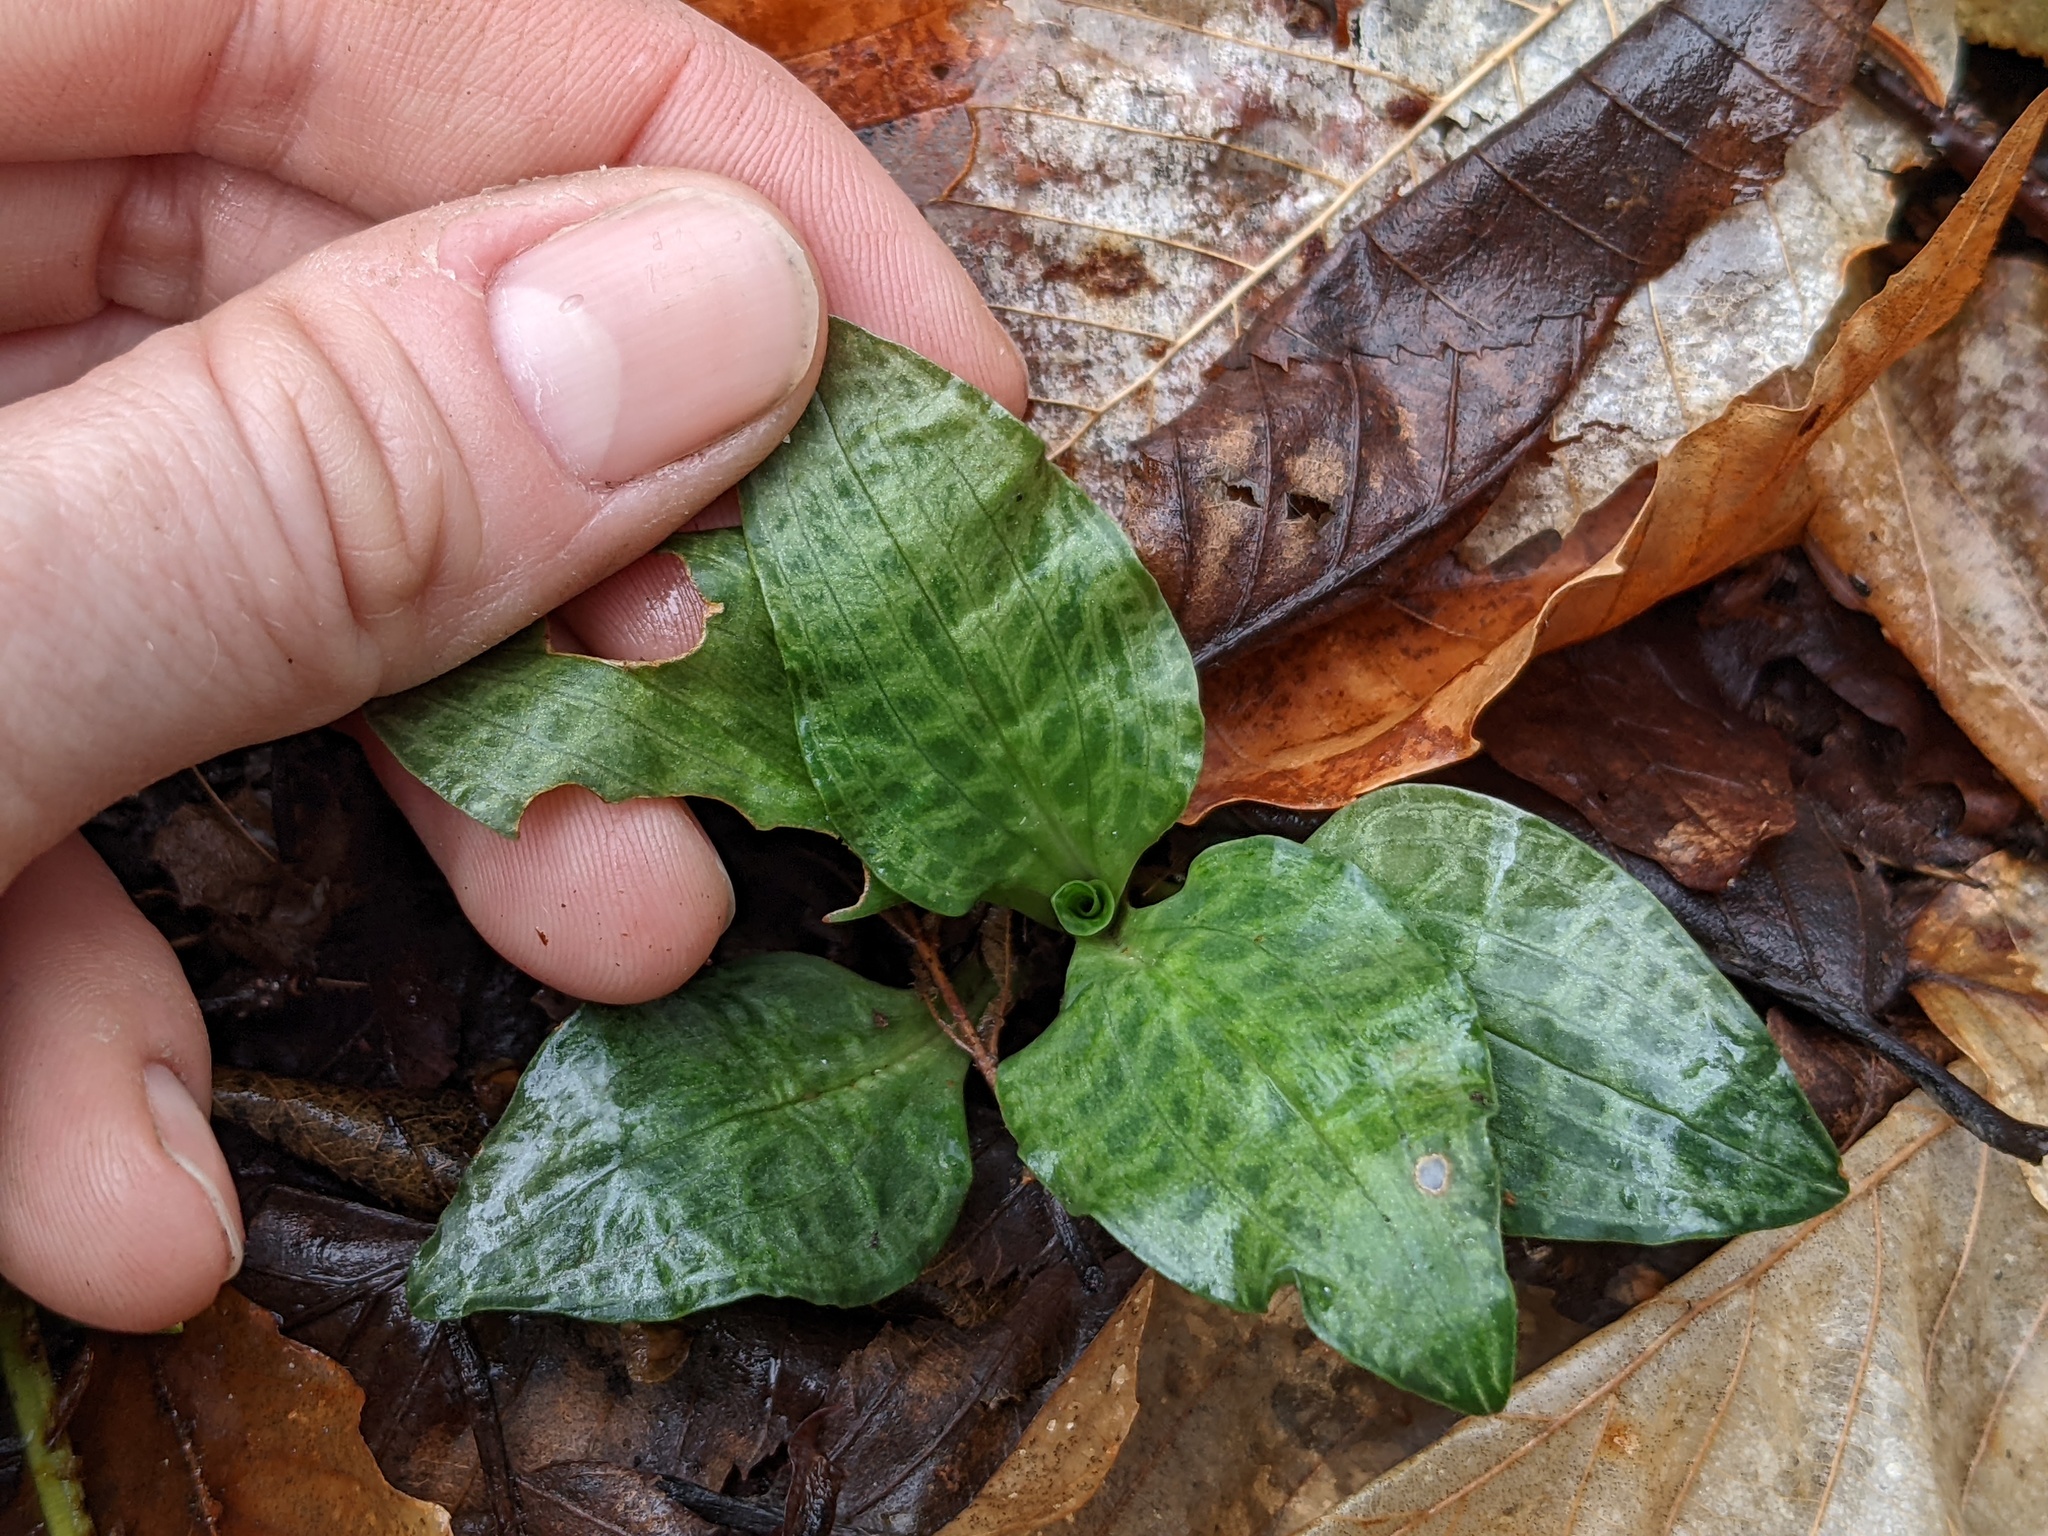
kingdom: Plantae
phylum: Tracheophyta
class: Liliopsida
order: Asparagales
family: Orchidaceae
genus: Goodyera
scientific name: Goodyera tesselata
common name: Checkered rattlesnake-plantain
